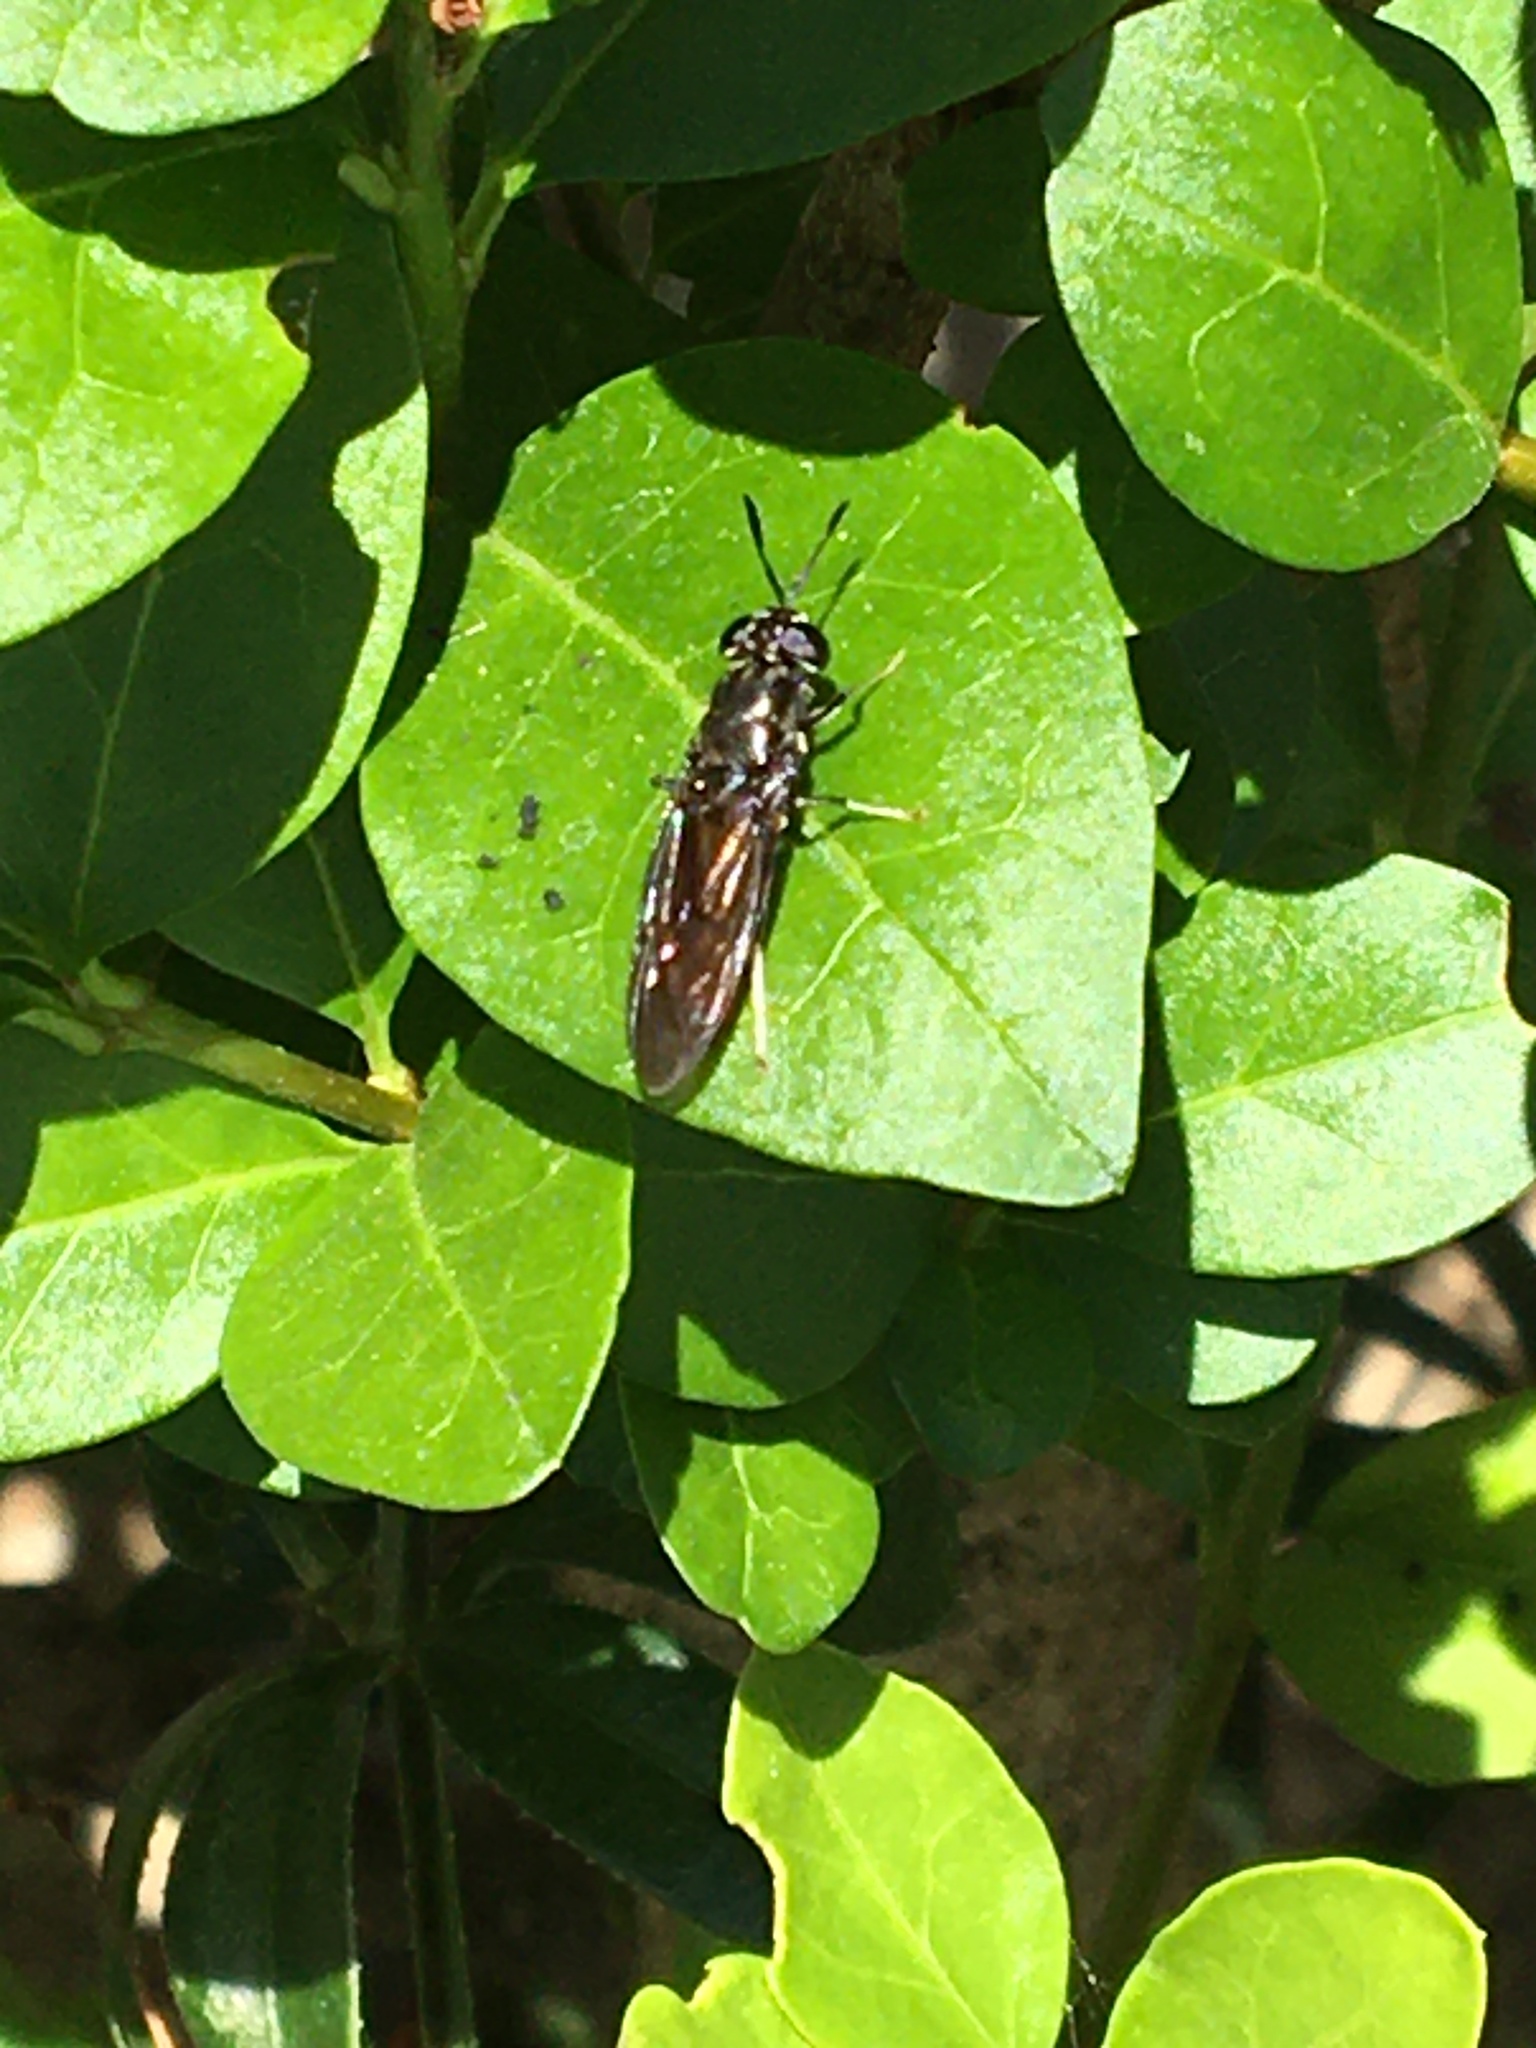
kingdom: Animalia
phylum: Arthropoda
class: Insecta
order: Diptera
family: Stratiomyidae
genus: Hermetia
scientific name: Hermetia illucens
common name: Black soldier fly
